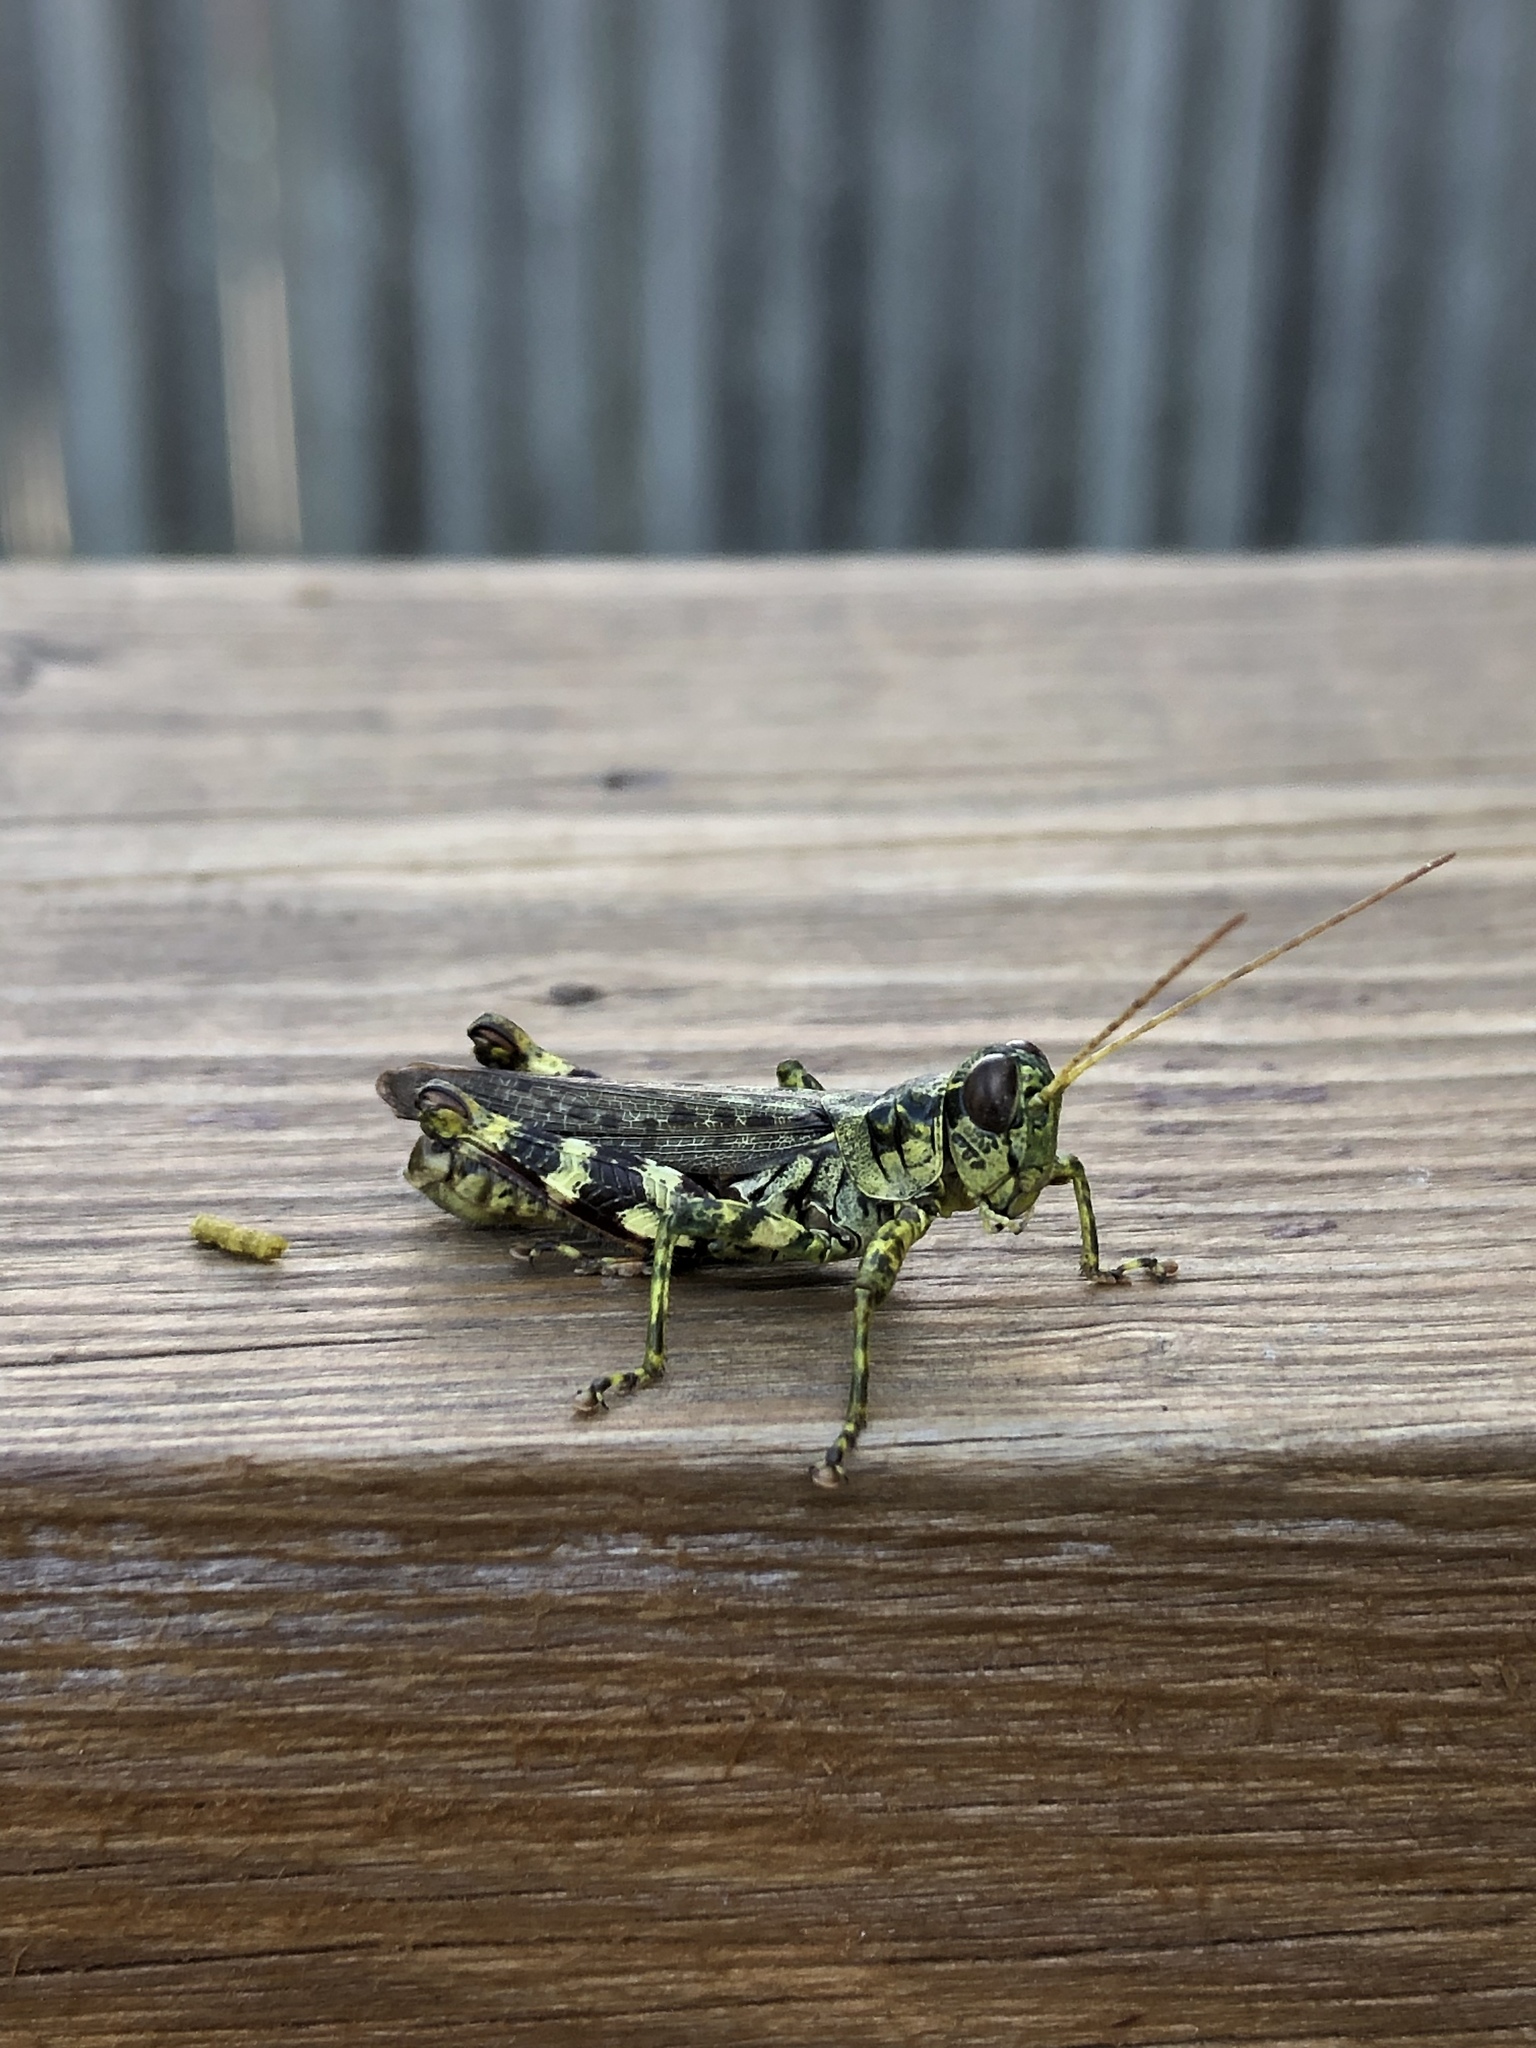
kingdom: Animalia
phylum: Arthropoda
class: Insecta
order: Orthoptera
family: Acrididae
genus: Melanoplus
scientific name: Melanoplus punctulatus
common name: Pine-tree spur-throat grasshopper
